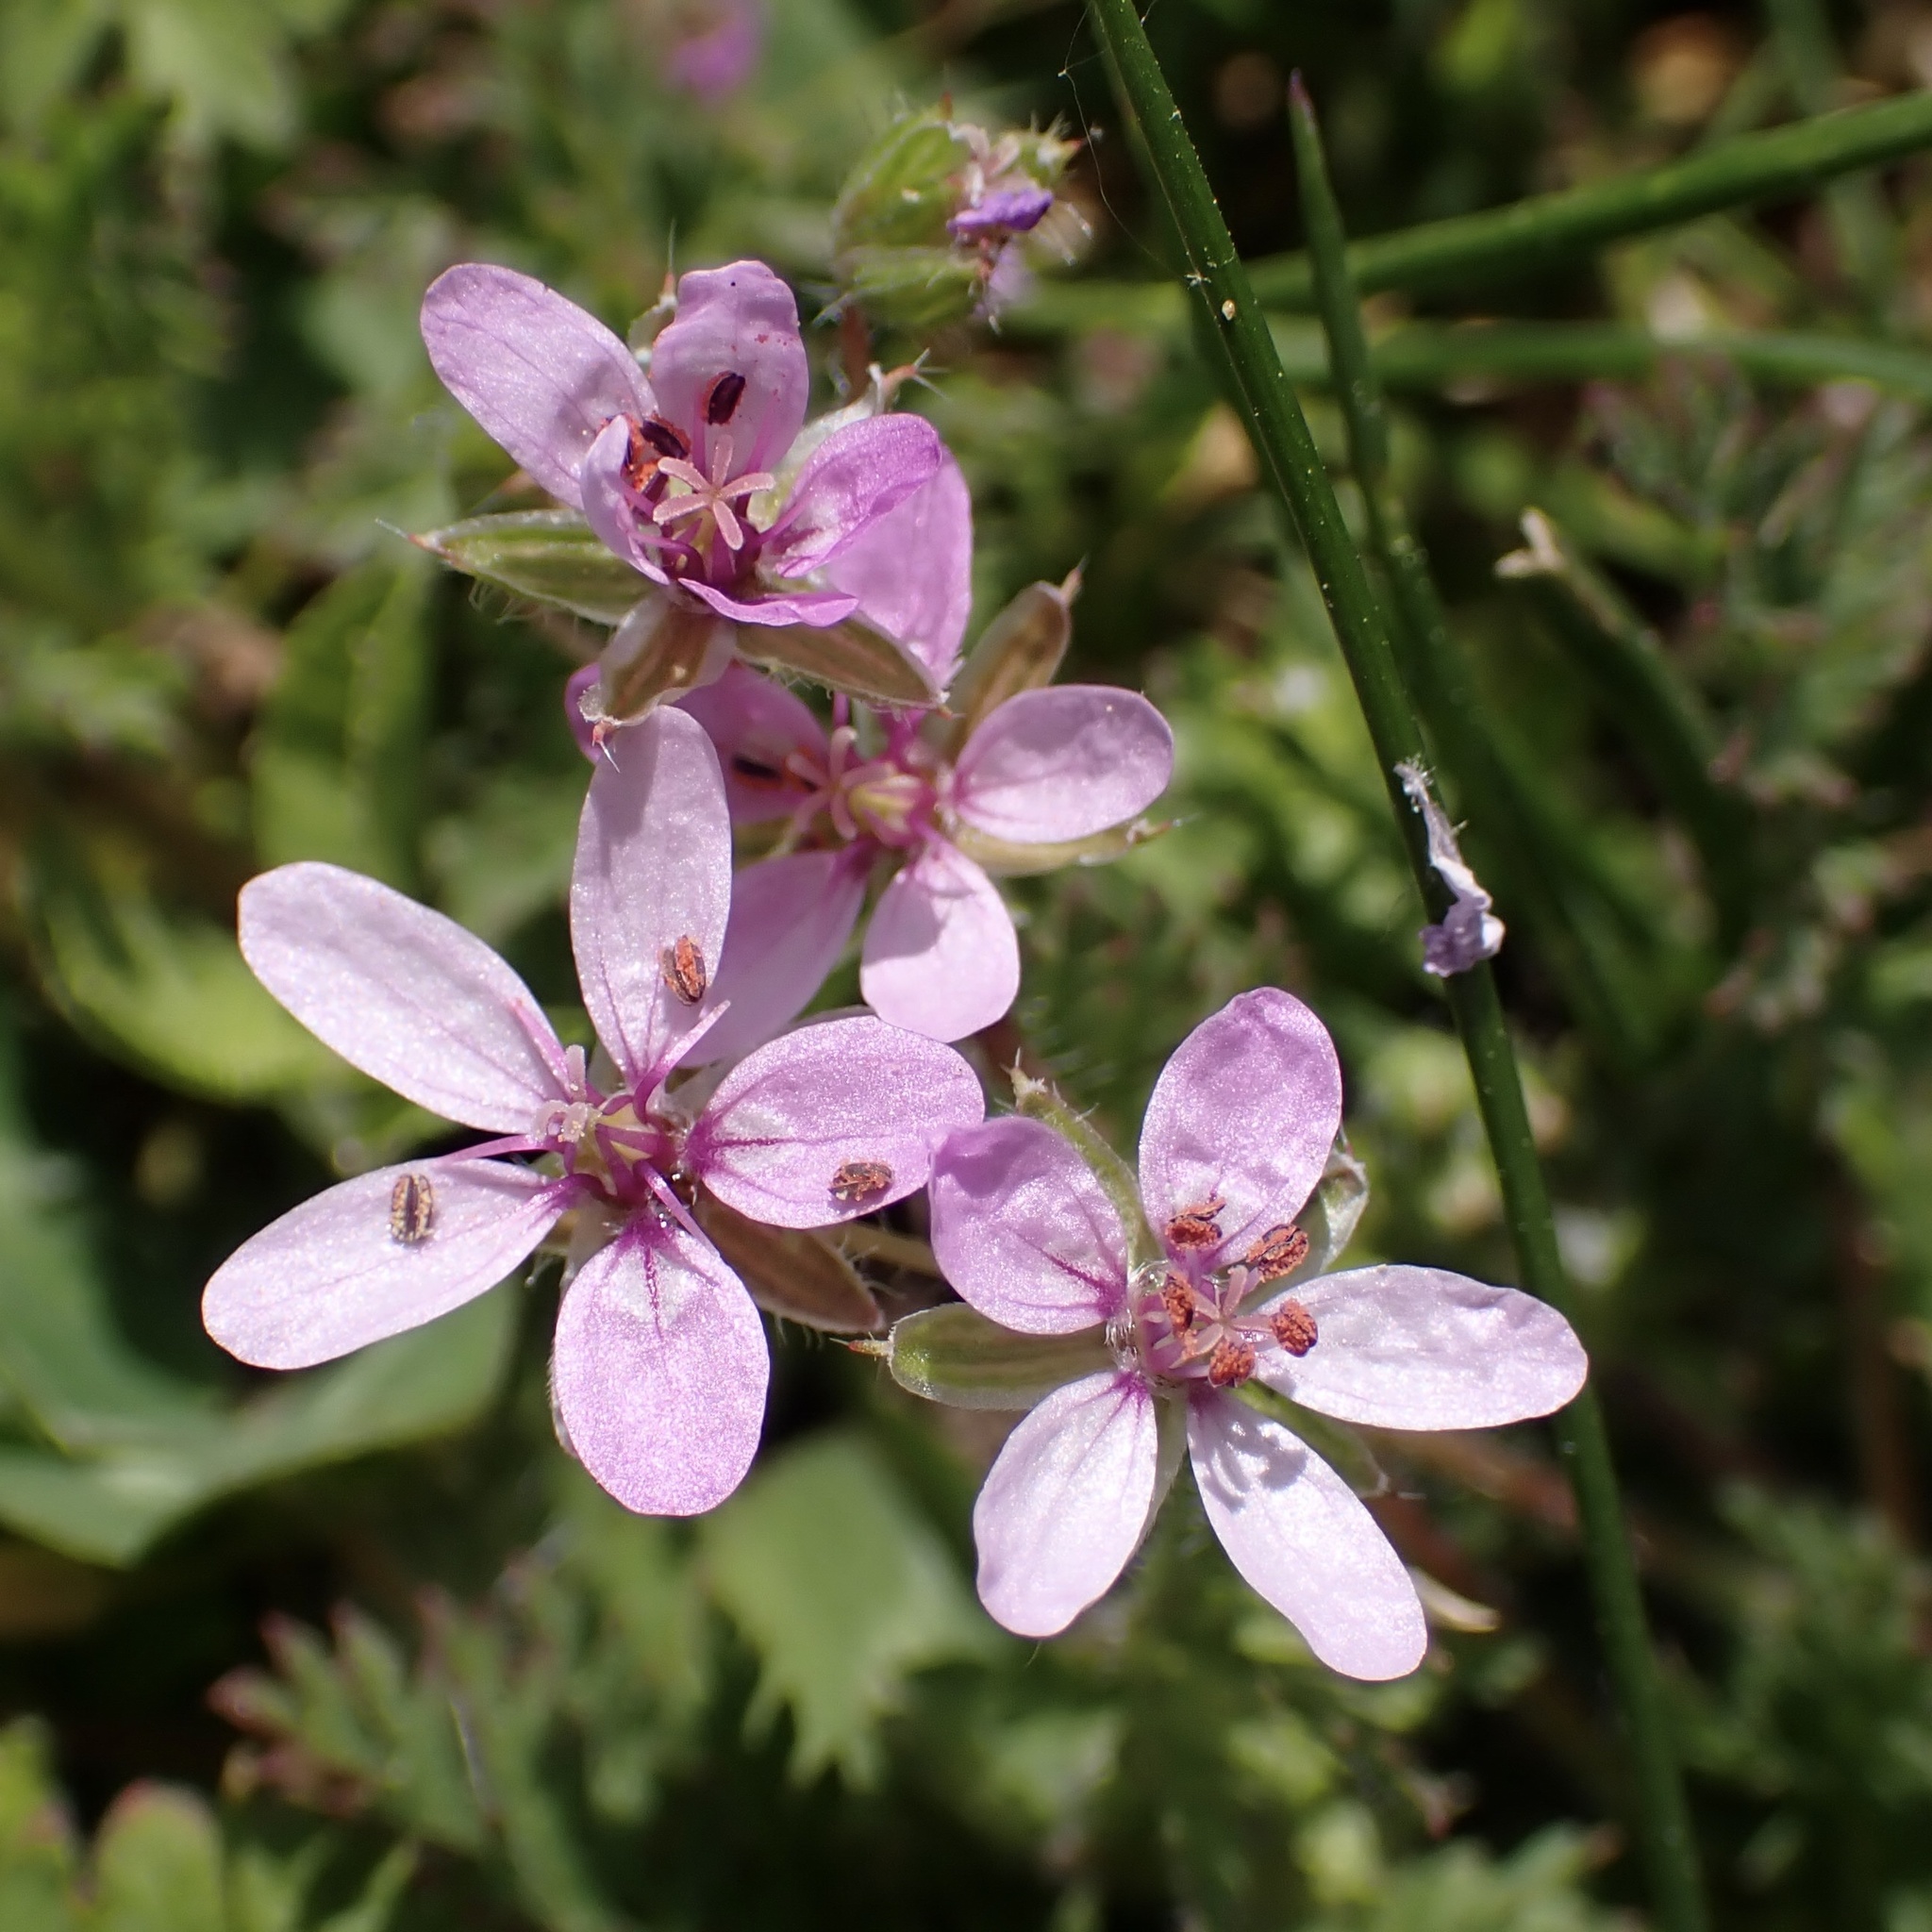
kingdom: Plantae
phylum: Tracheophyta
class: Magnoliopsida
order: Geraniales
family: Geraniaceae
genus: Erodium
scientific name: Erodium cicutarium
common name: Common stork's-bill
